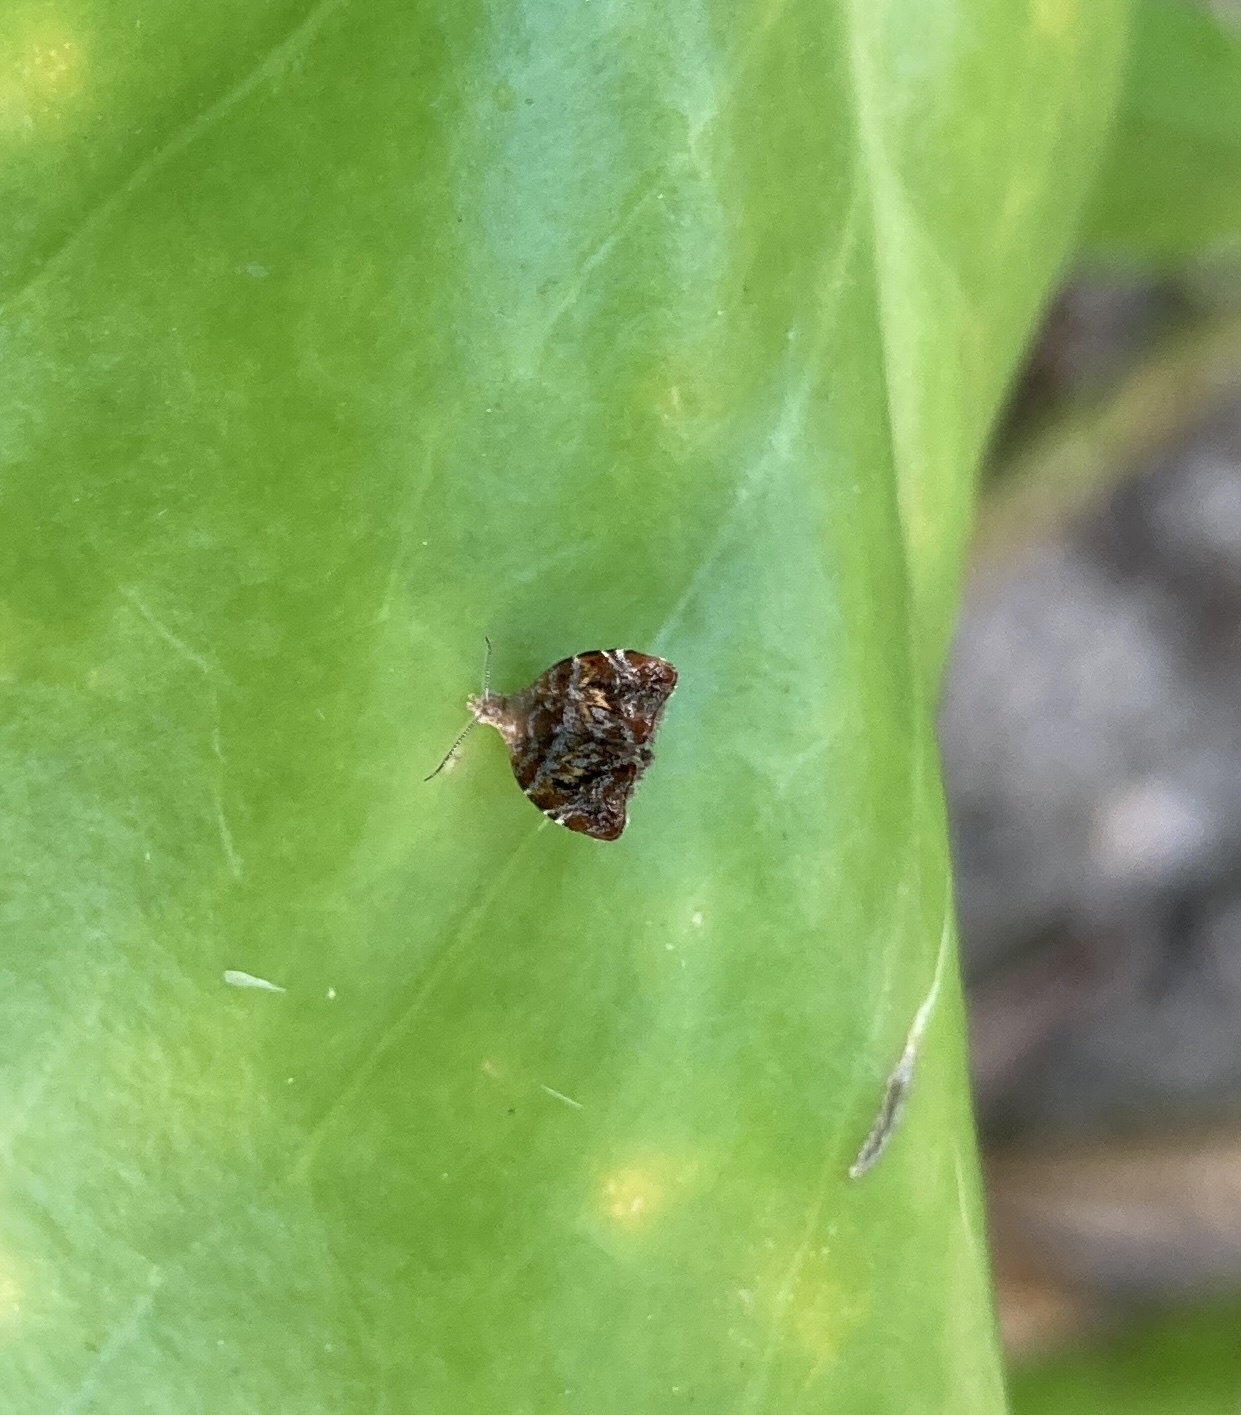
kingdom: Animalia
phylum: Arthropoda
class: Insecta
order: Lepidoptera
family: Choreutidae
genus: Choreutis
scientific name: Choreutis sexfasciella
